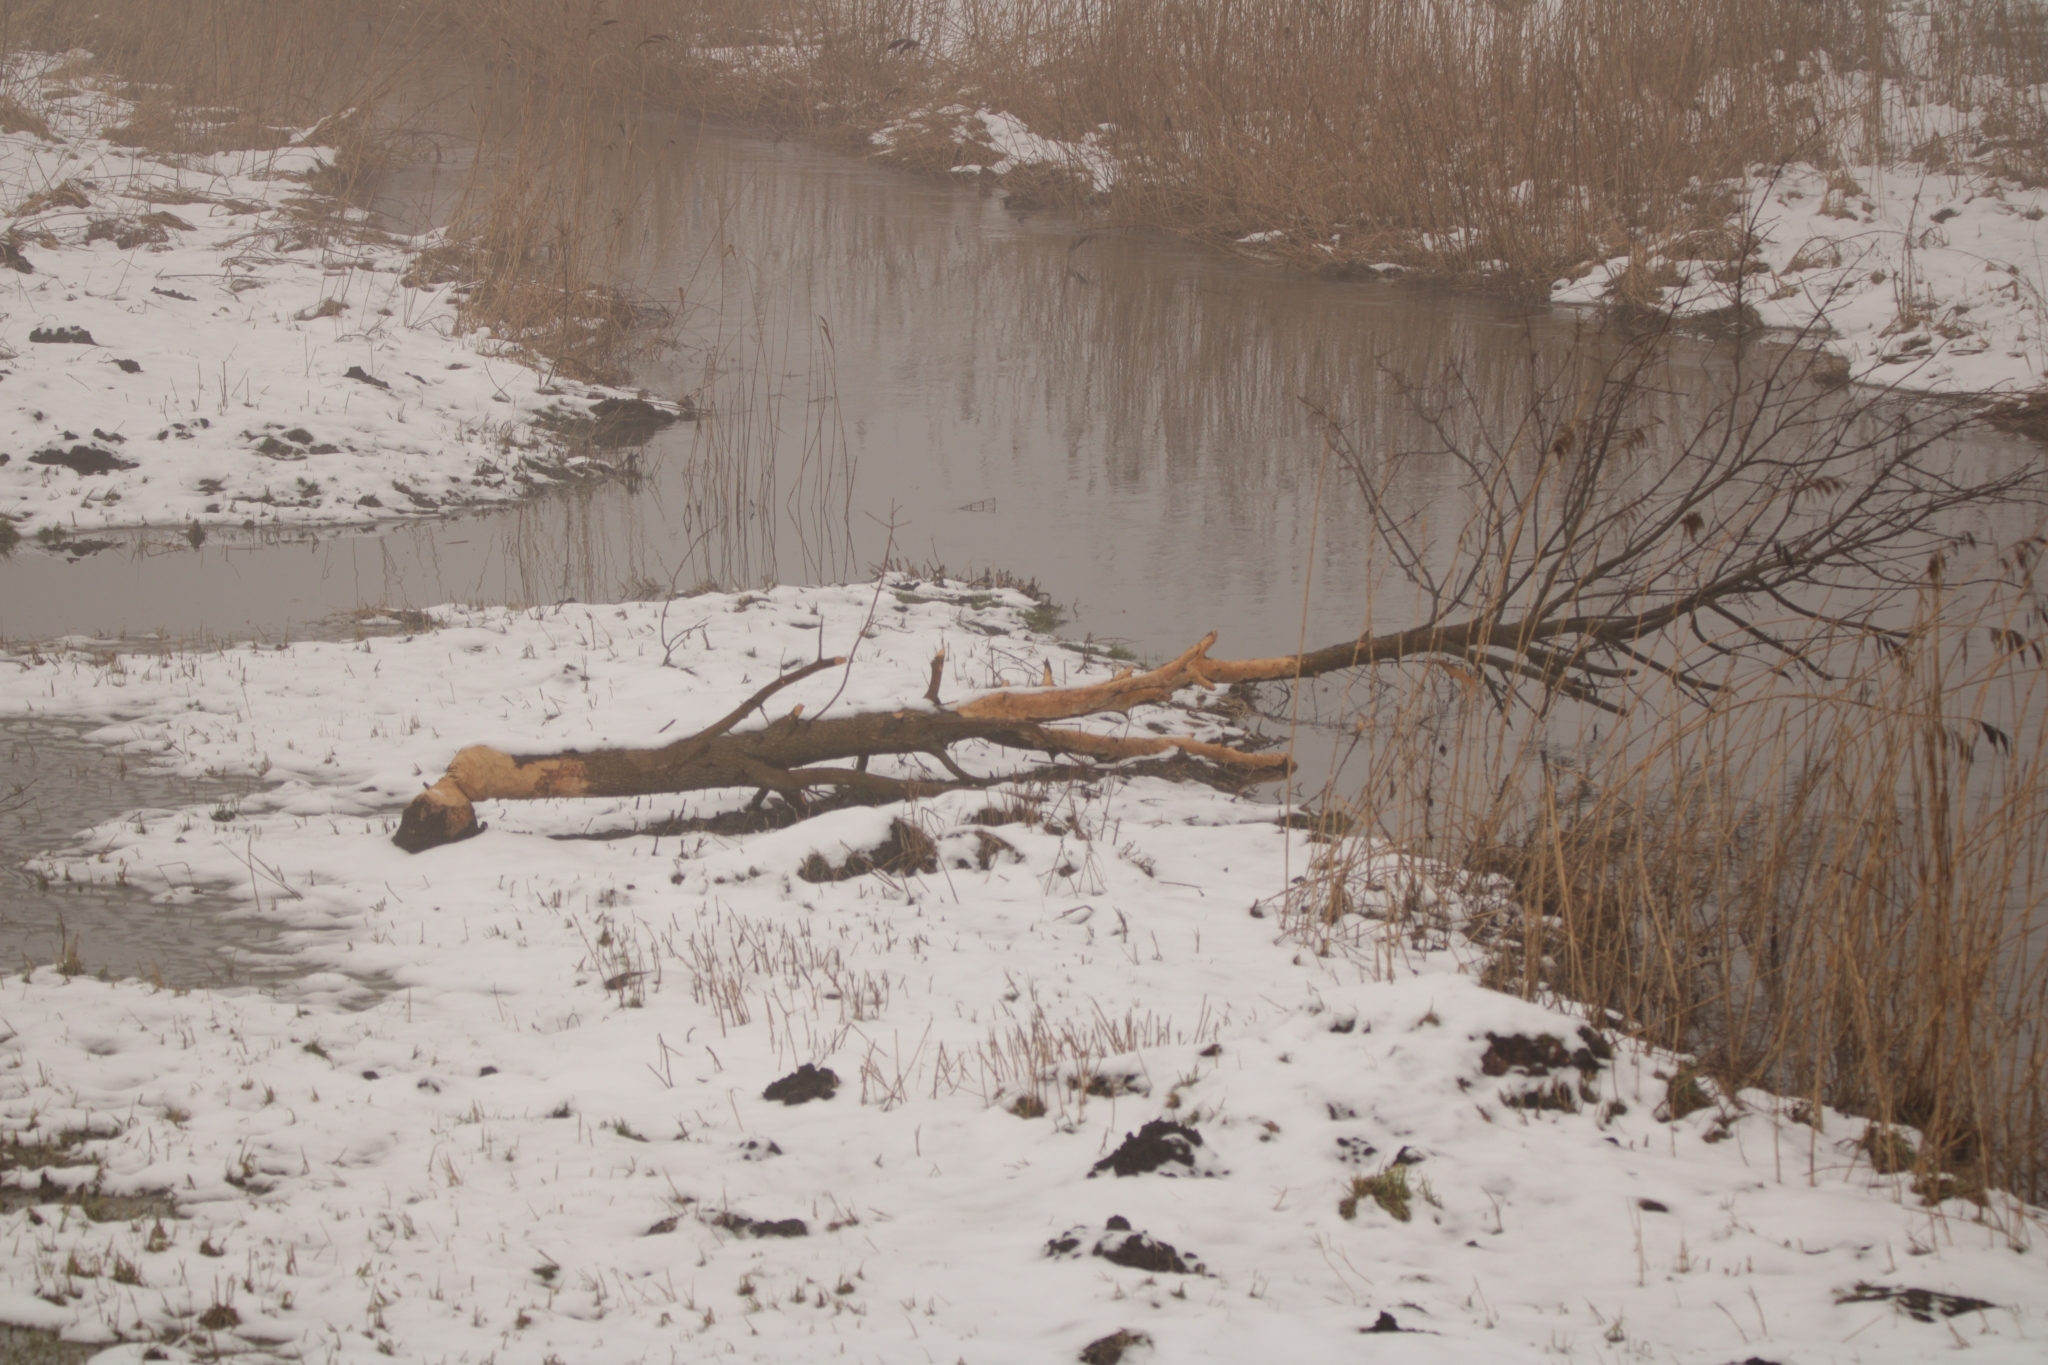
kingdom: Animalia
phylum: Chordata
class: Mammalia
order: Rodentia
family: Castoridae
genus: Castor
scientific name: Castor fiber
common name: Eurasian beaver
